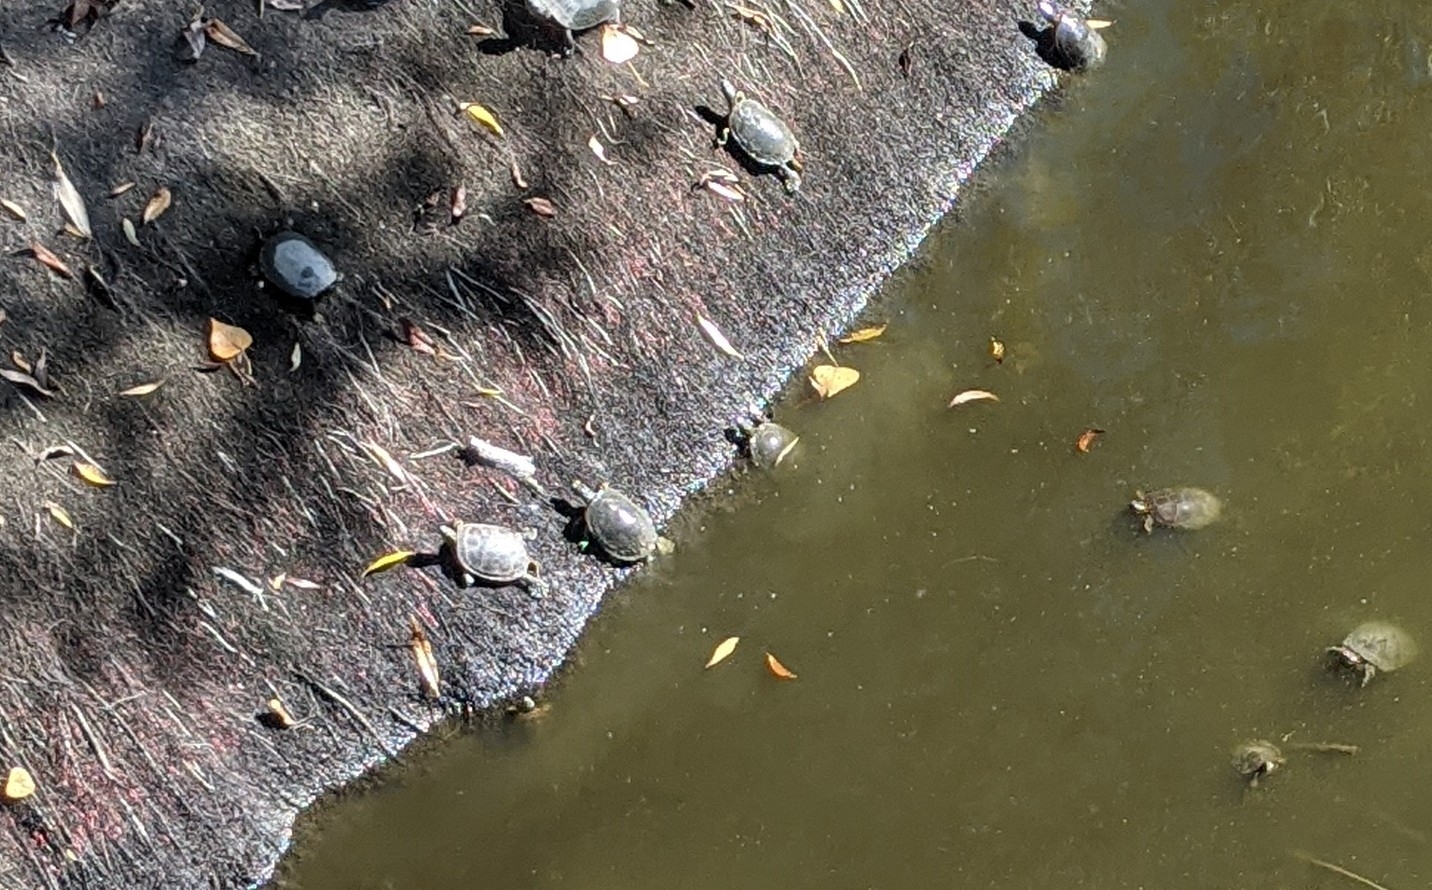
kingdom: Animalia
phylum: Chordata
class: Testudines
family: Emydidae
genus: Chrysemys
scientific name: Chrysemys picta
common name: Painted turtle
